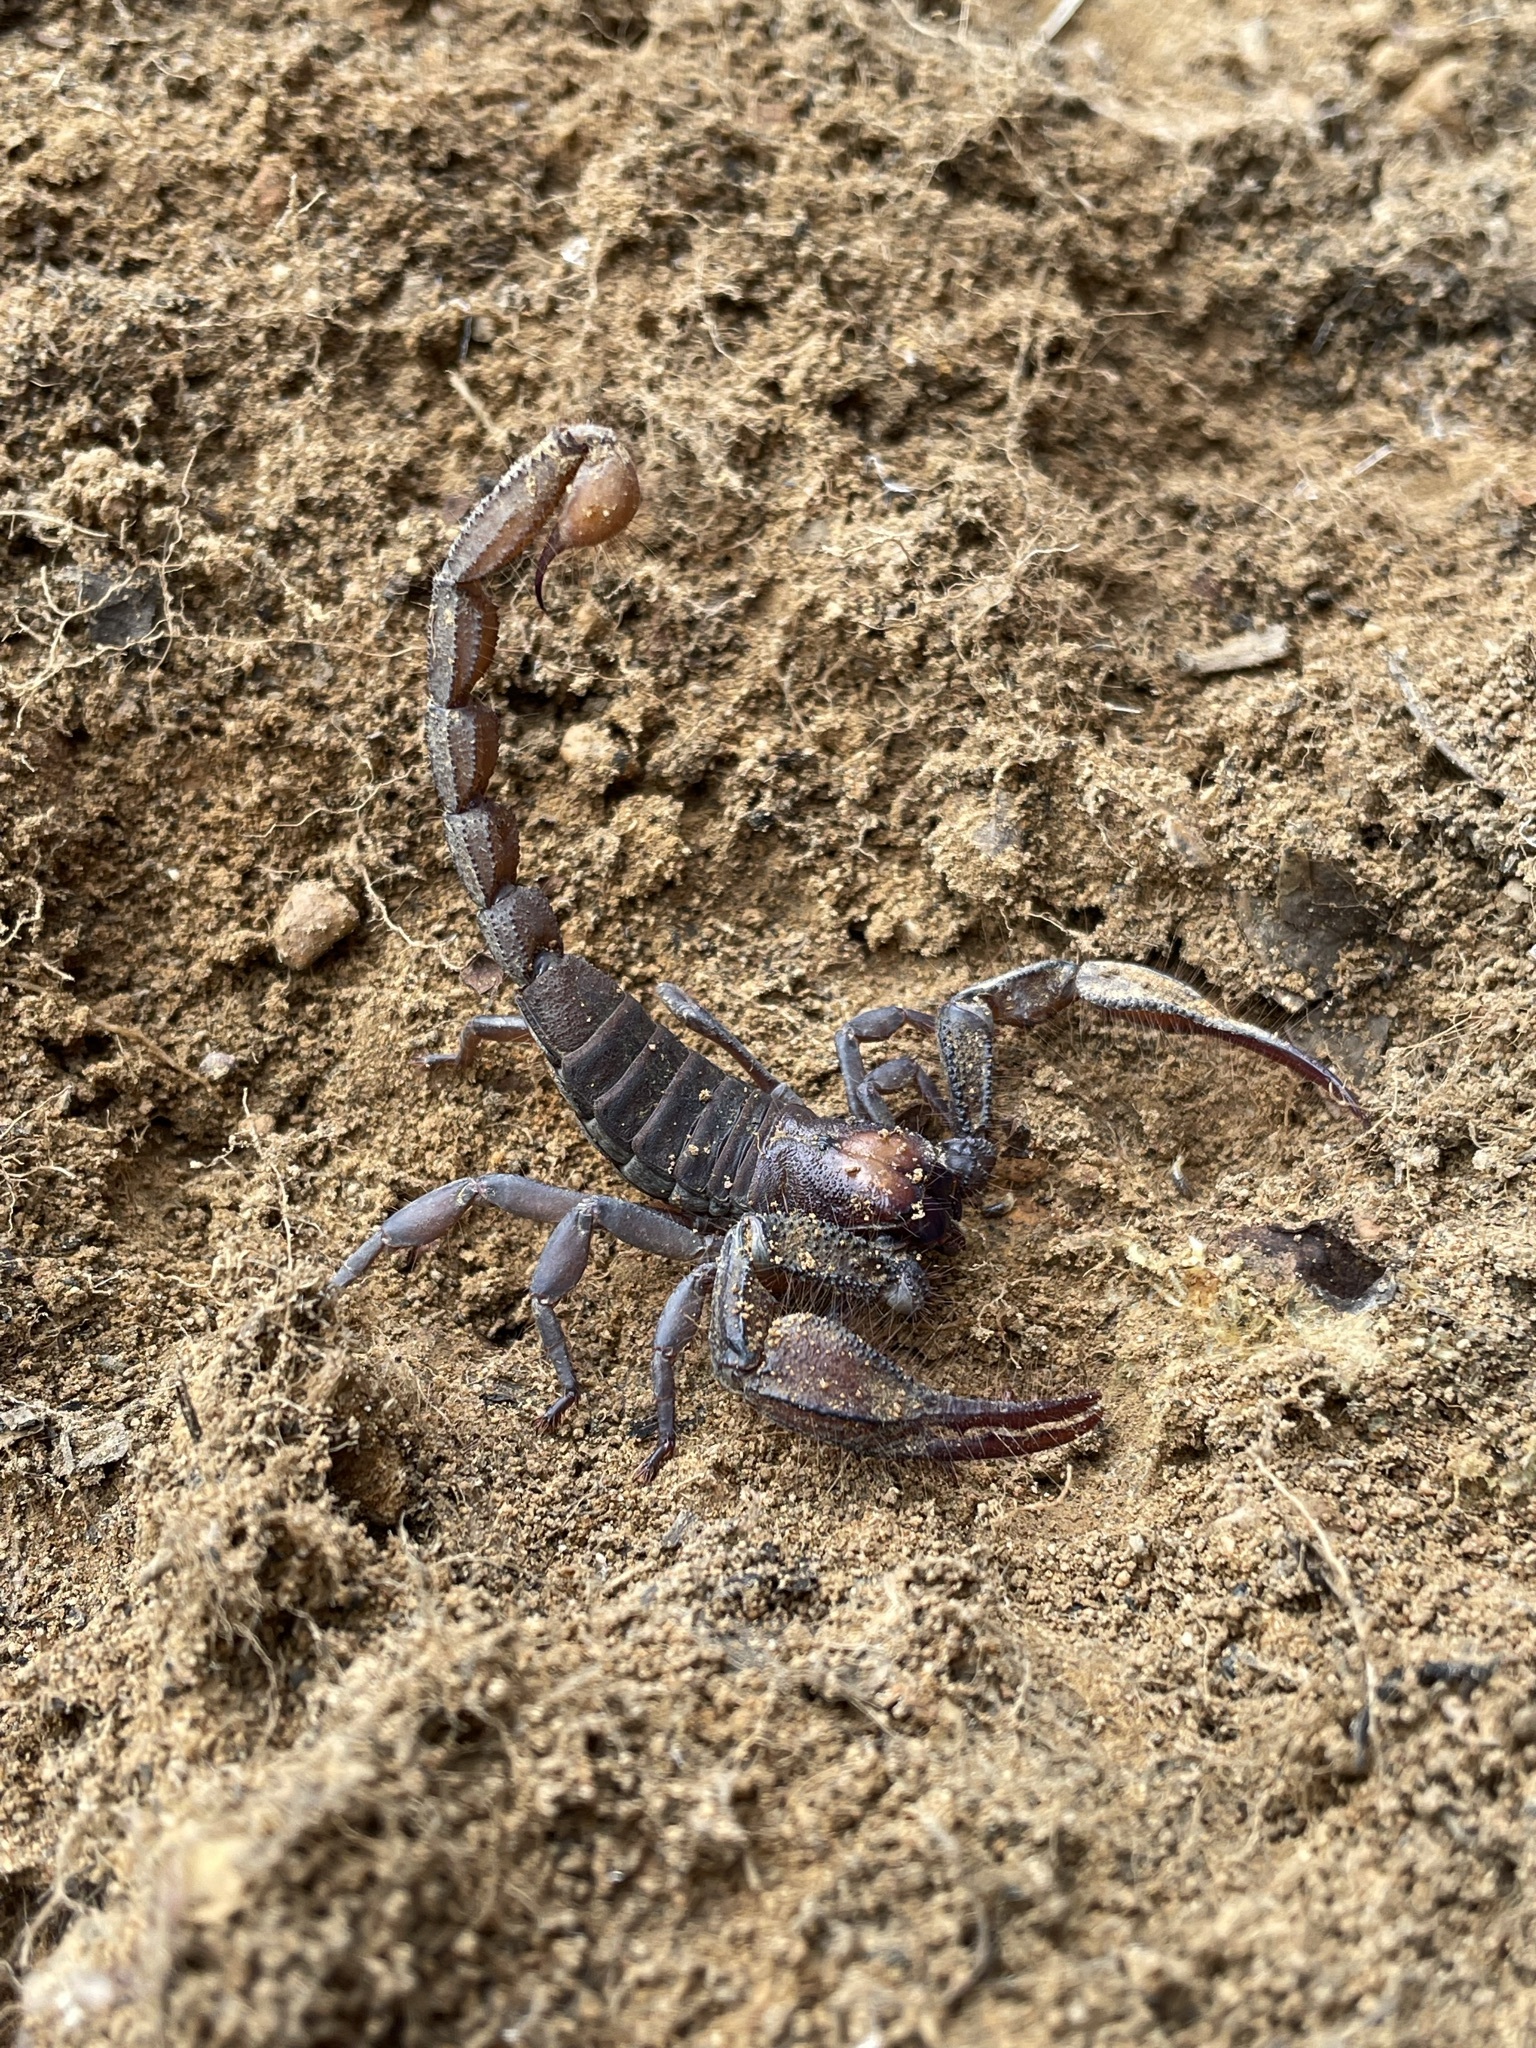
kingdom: Animalia
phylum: Arthropoda
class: Arachnida
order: Scorpiones
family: Scorpionidae
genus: Opistophthalmus
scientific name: Opistophthalmus pattisoni
